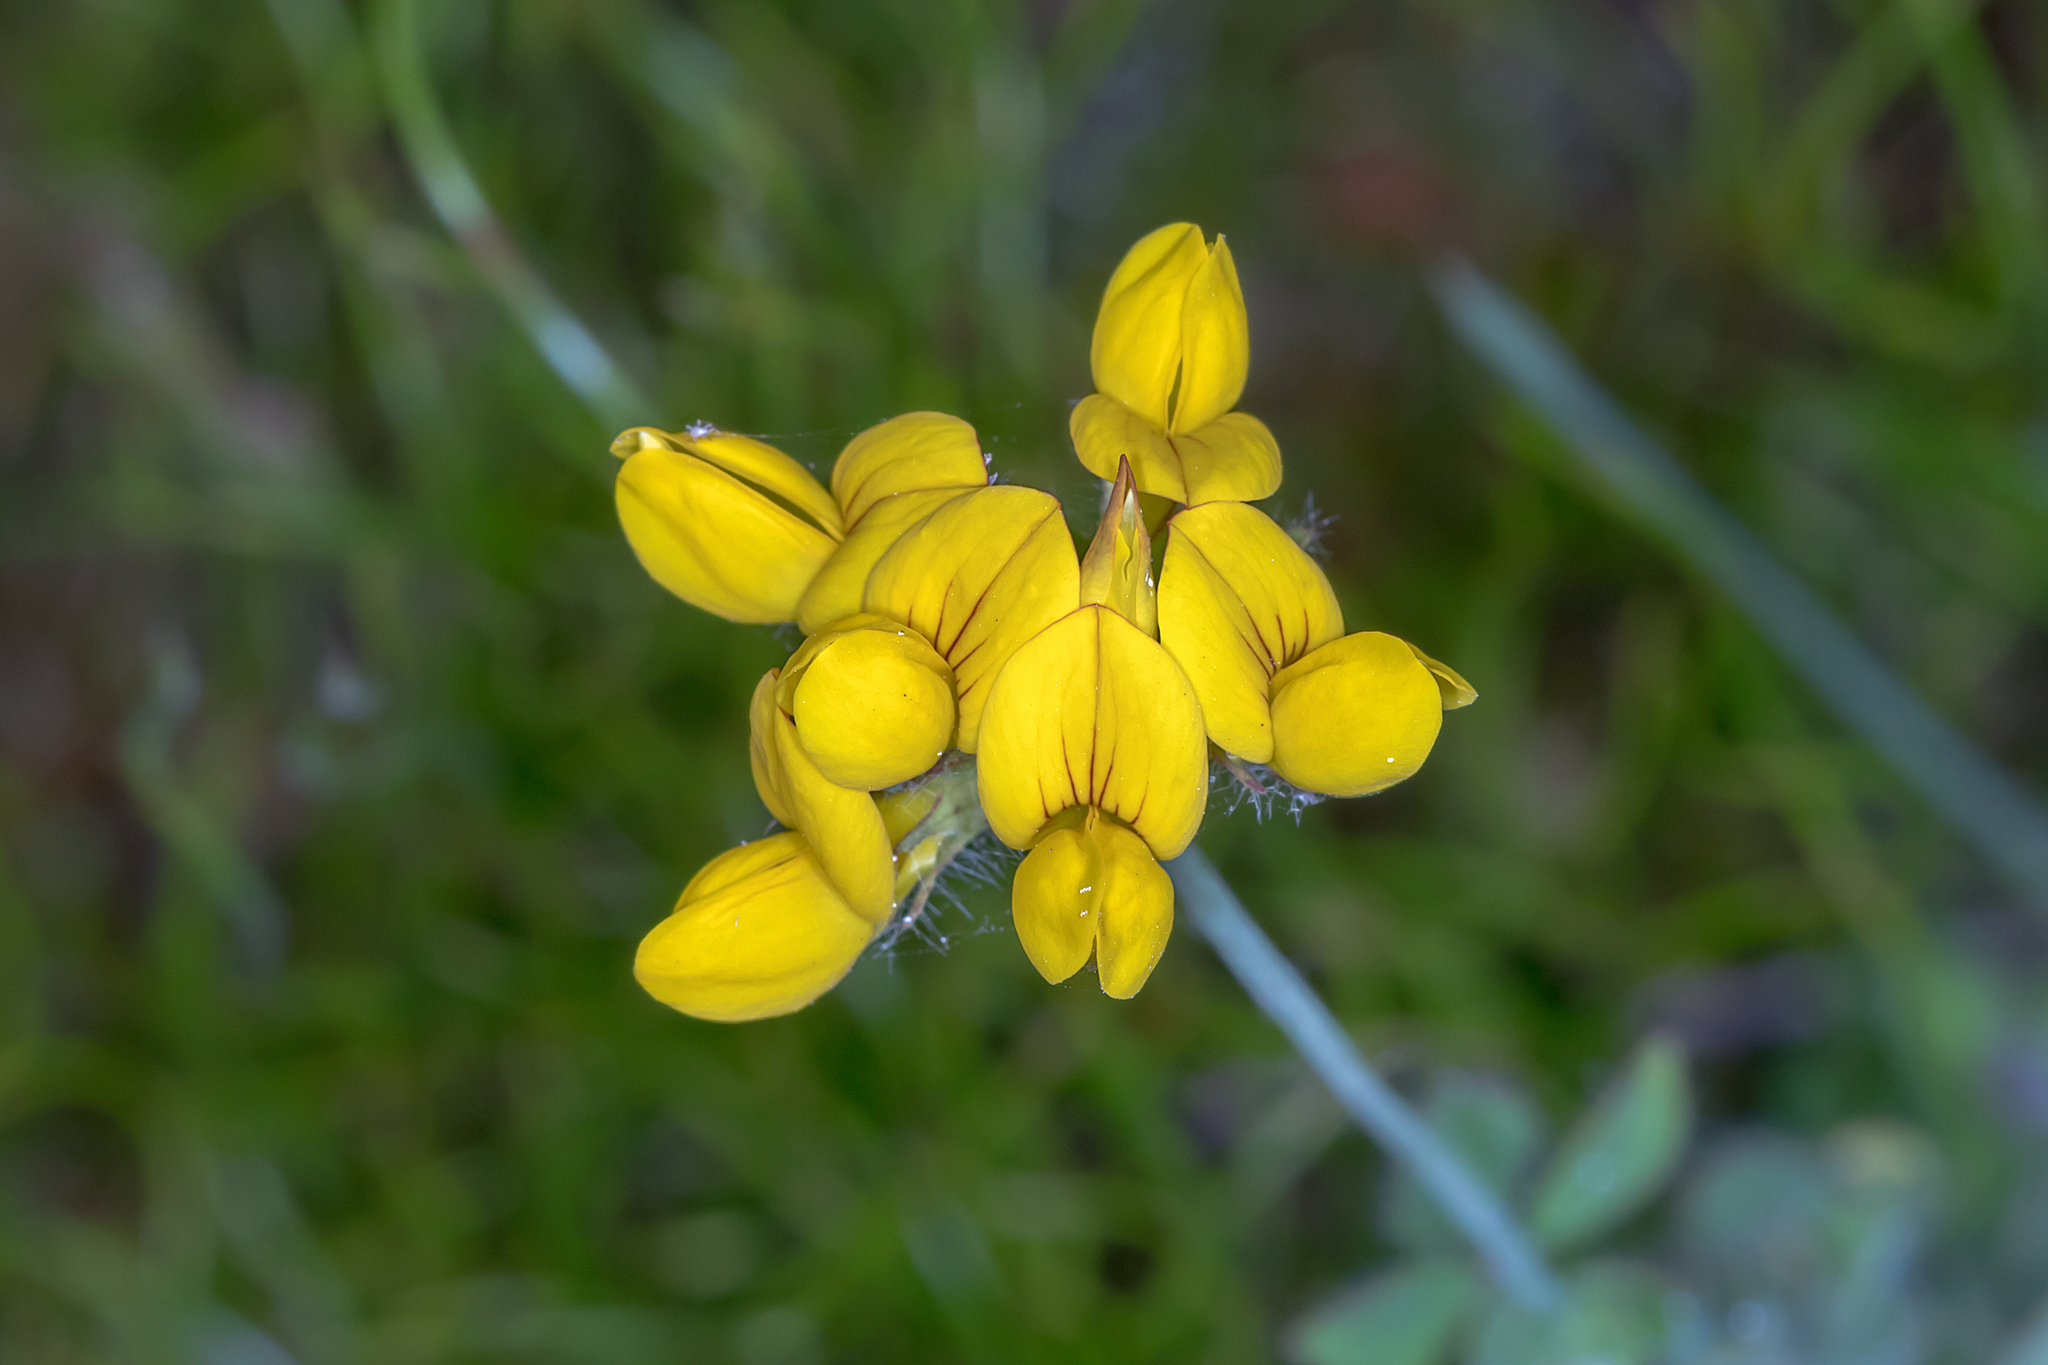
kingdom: Plantae
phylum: Tracheophyta
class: Magnoliopsida
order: Fabales
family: Fabaceae
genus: Lotus
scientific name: Lotus pedunculatus
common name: Greater birdsfoot-trefoil
